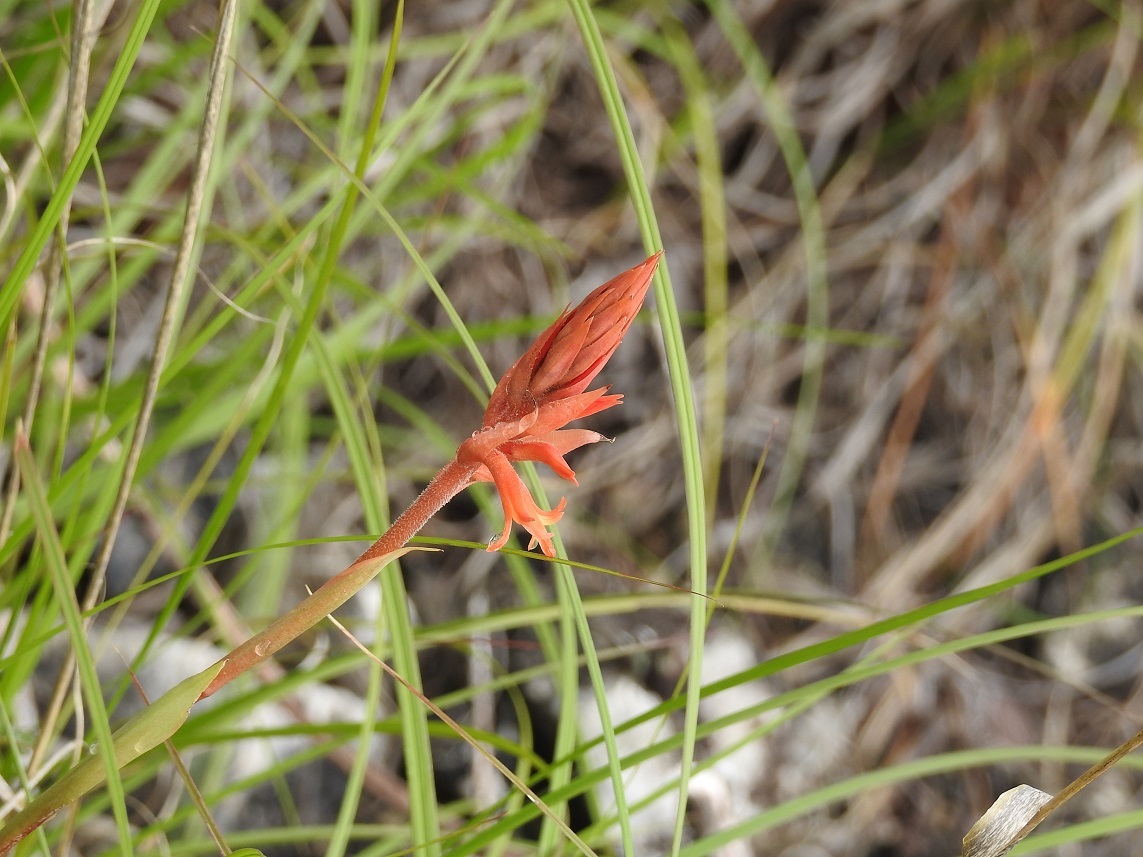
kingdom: Plantae
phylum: Tracheophyta
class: Liliopsida
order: Asparagales
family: Orchidaceae
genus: Dichromanthus
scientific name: Dichromanthus cinnabarinus
